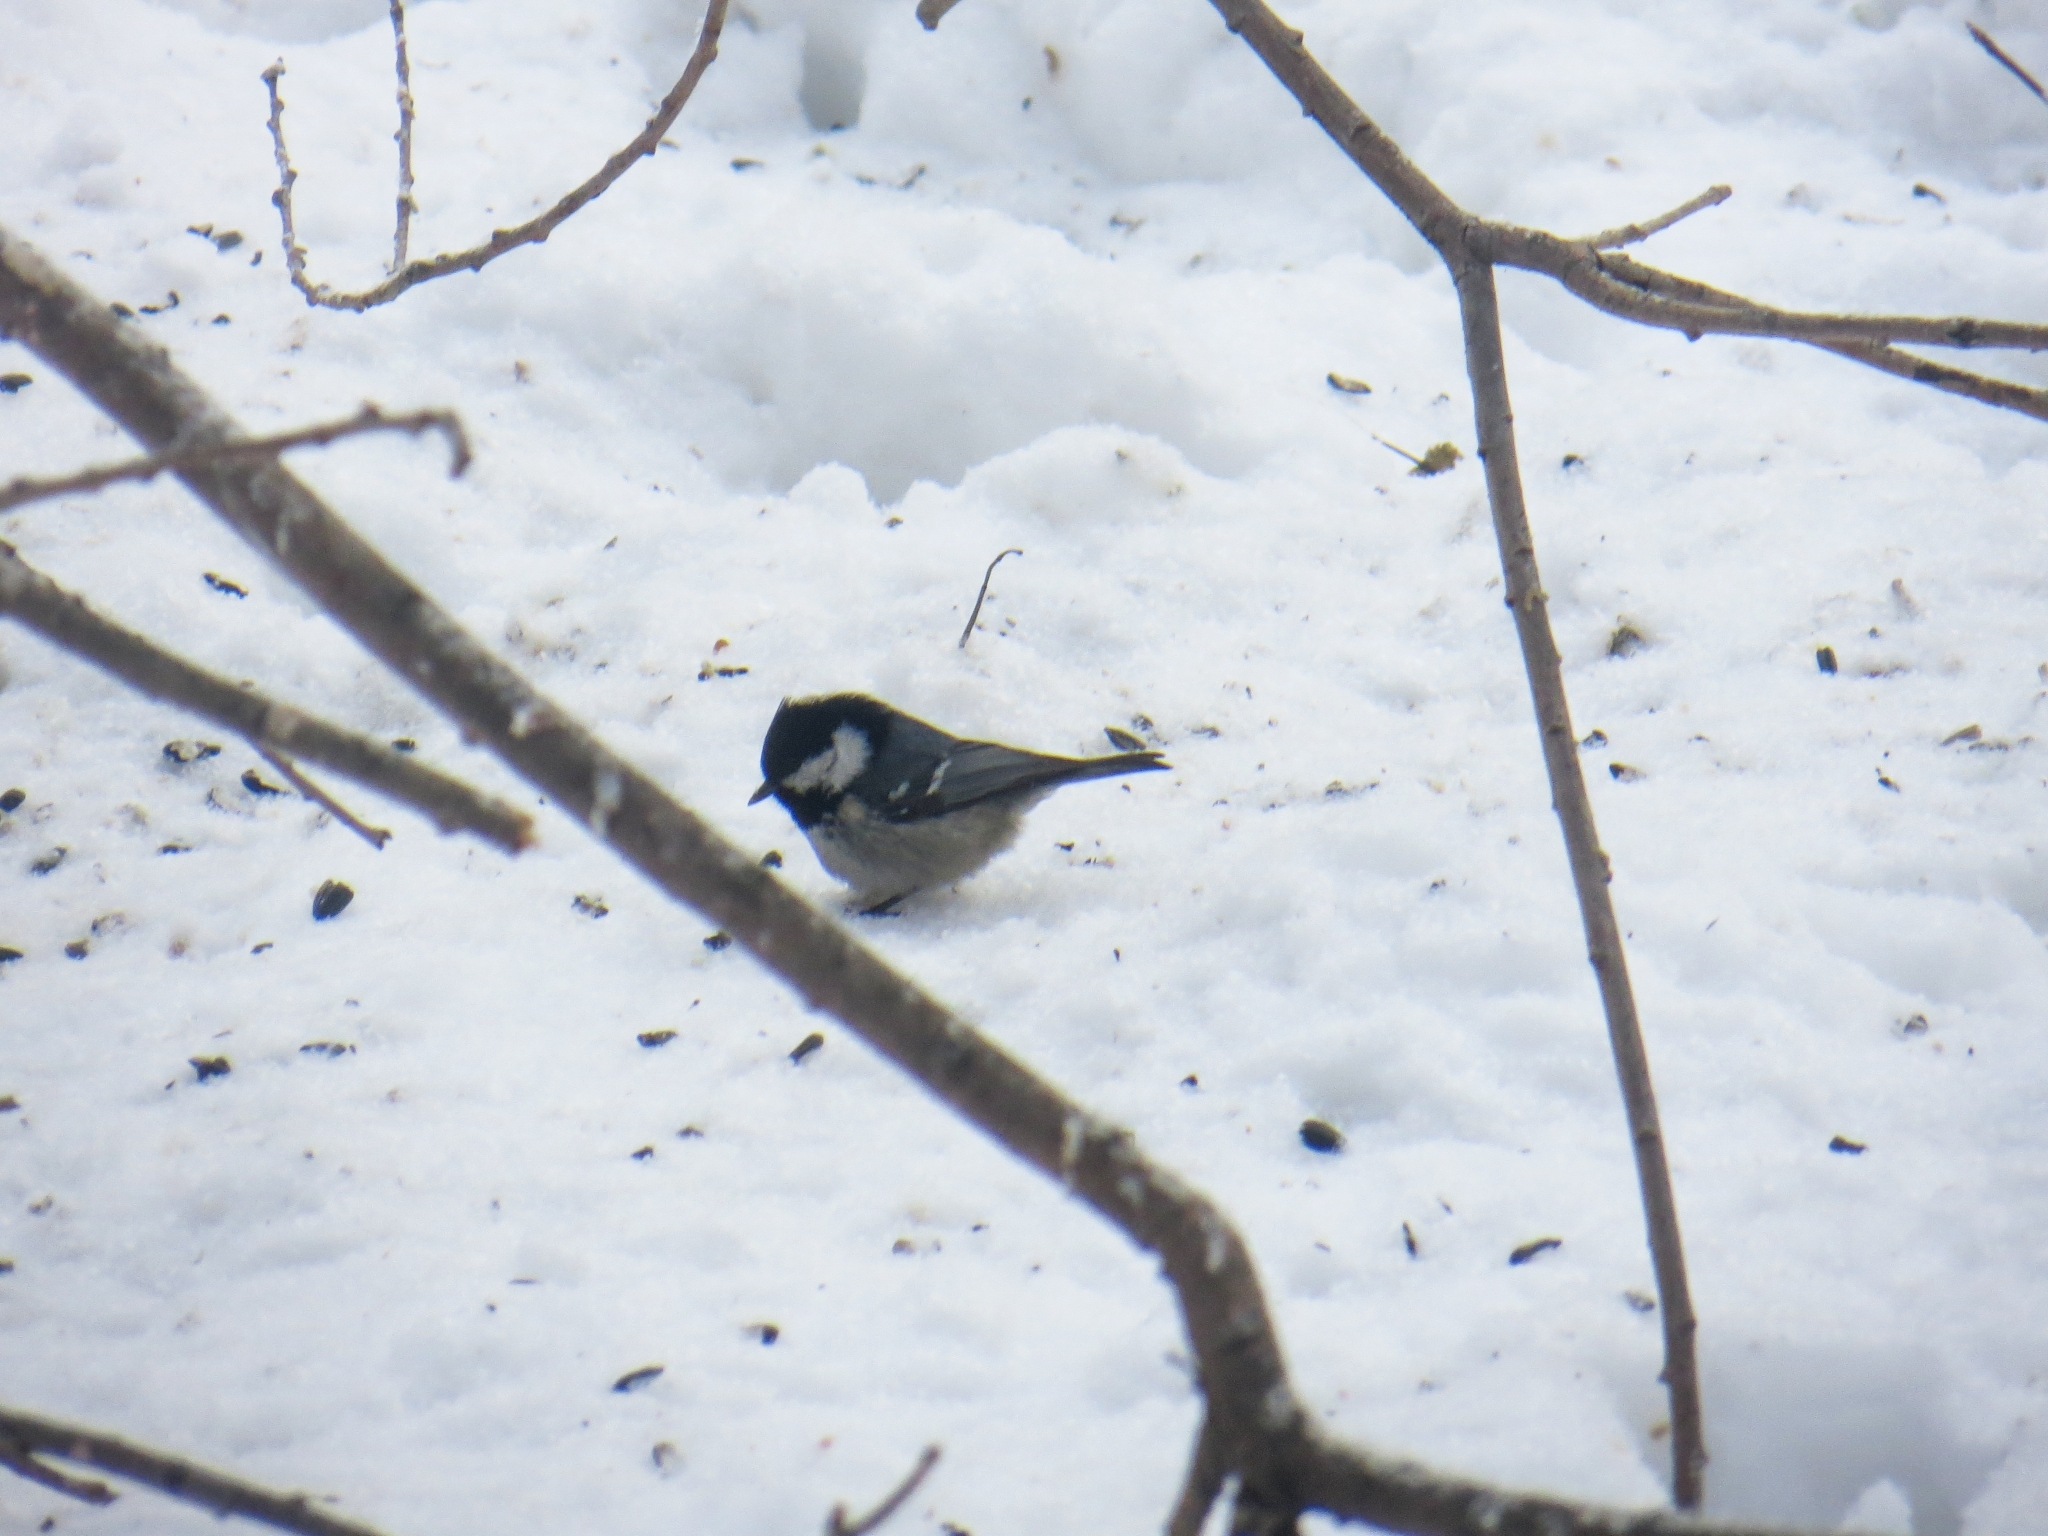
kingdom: Animalia
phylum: Chordata
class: Aves
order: Passeriformes
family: Paridae
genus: Periparus
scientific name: Periparus ater
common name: Coal tit
